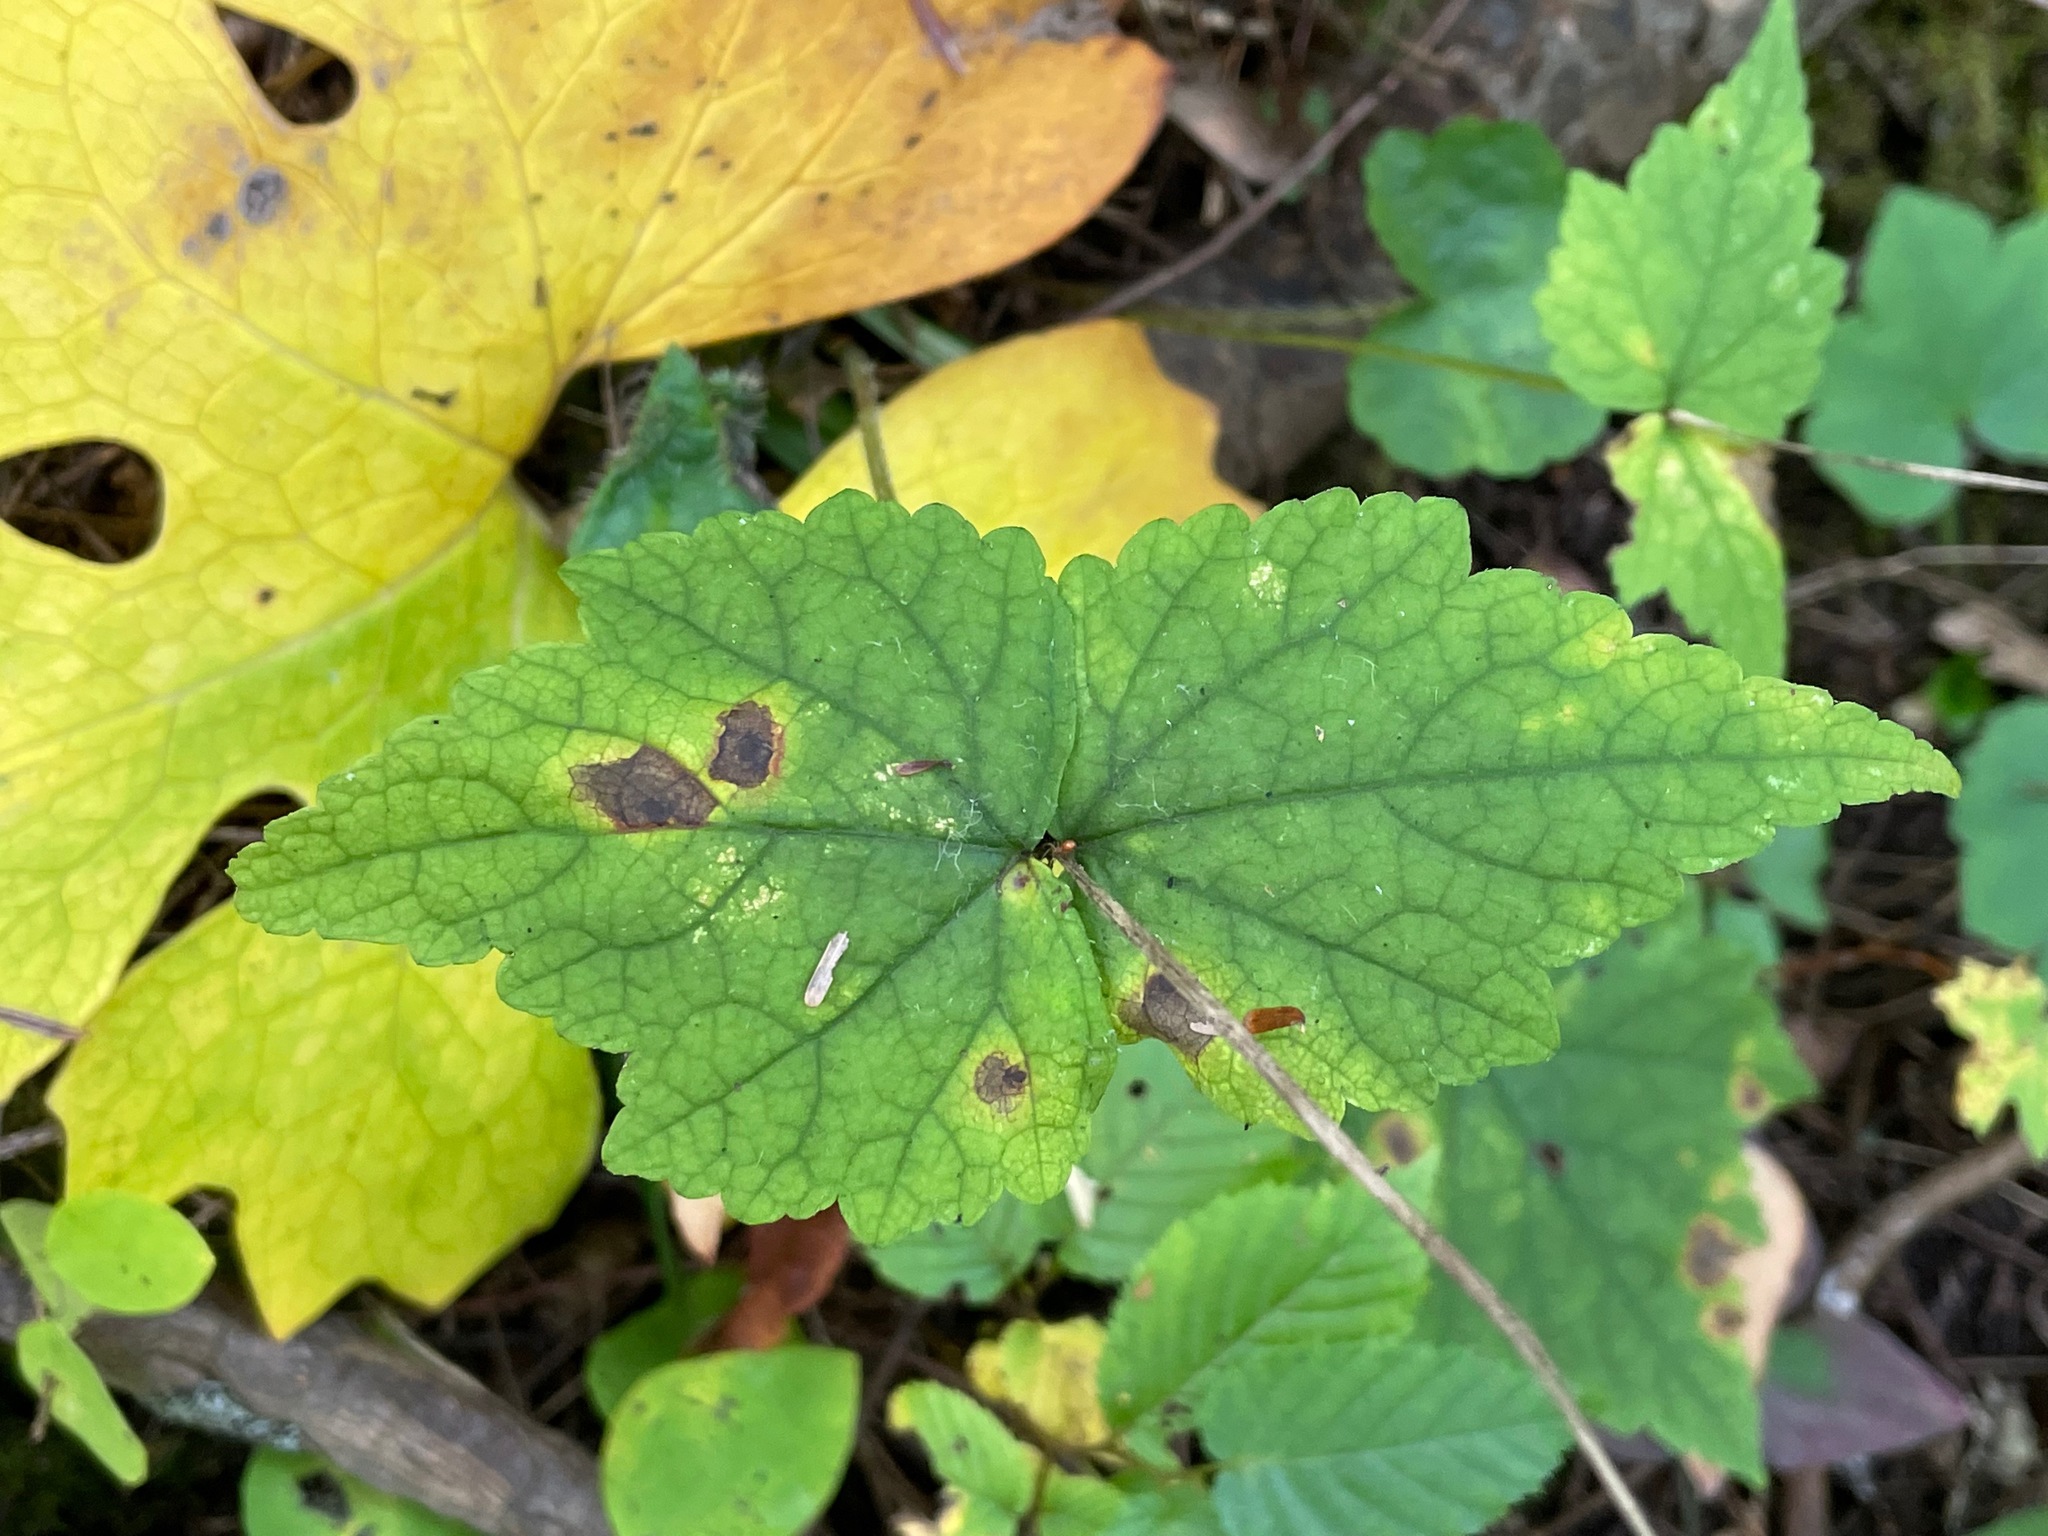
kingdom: Plantae
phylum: Tracheophyta
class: Magnoliopsida
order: Saxifragales
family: Saxifragaceae
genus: Mitella
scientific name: Mitella diphylla
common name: Coolwort
